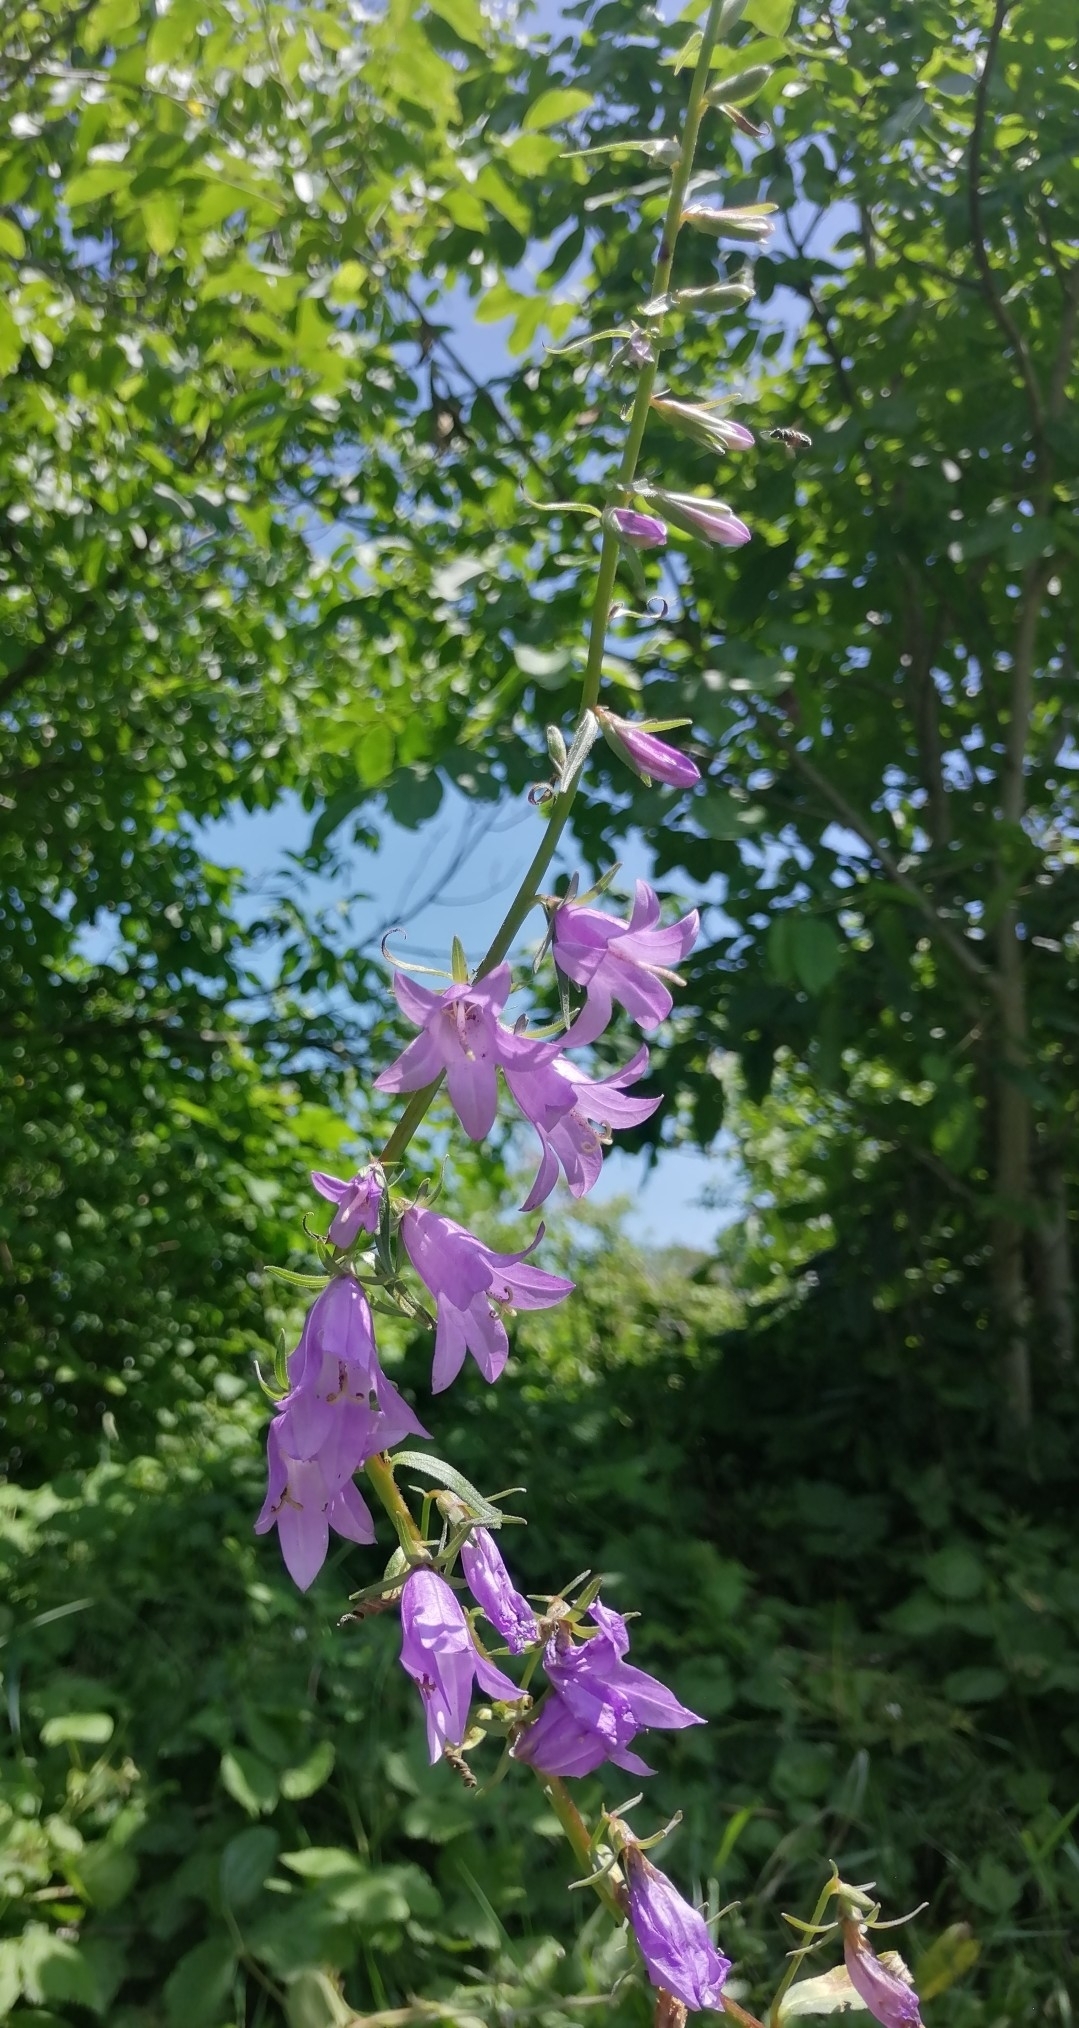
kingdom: Plantae
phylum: Tracheophyta
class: Magnoliopsida
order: Asterales
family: Campanulaceae
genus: Campanula
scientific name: Campanula rapunculoides
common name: Creeping bellflower
